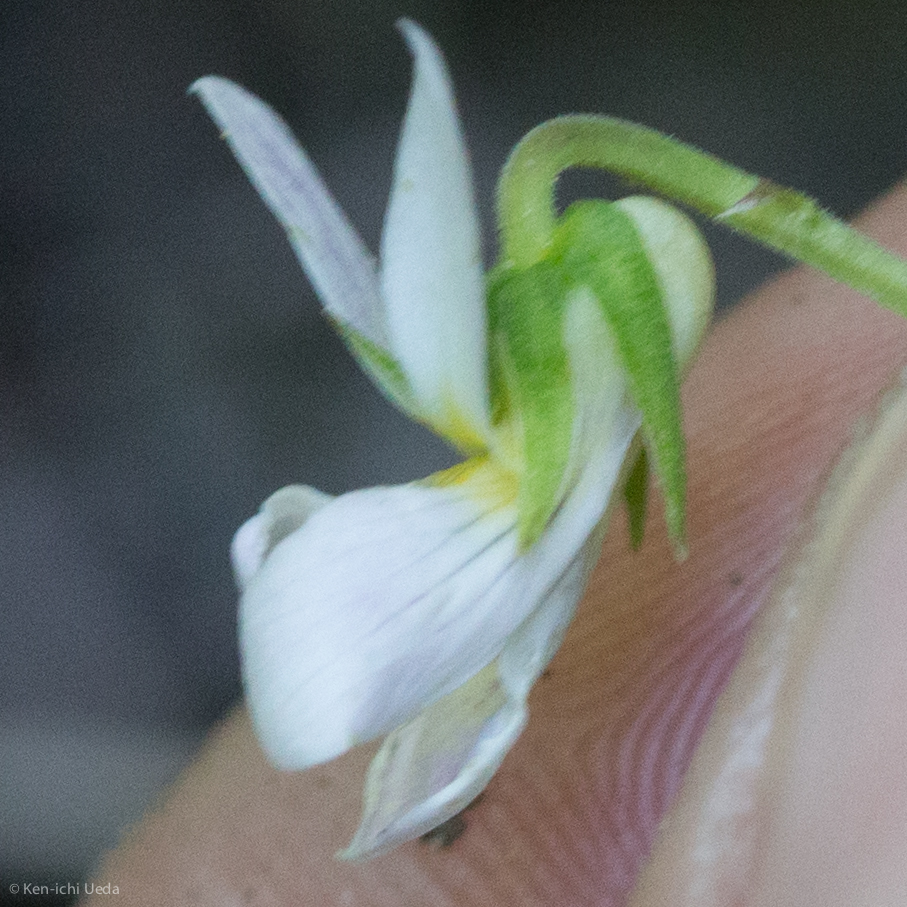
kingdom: Plantae
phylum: Tracheophyta
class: Magnoliopsida
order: Malpighiales
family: Violaceae
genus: Viola
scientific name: Viola canadensis
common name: Canada violet
